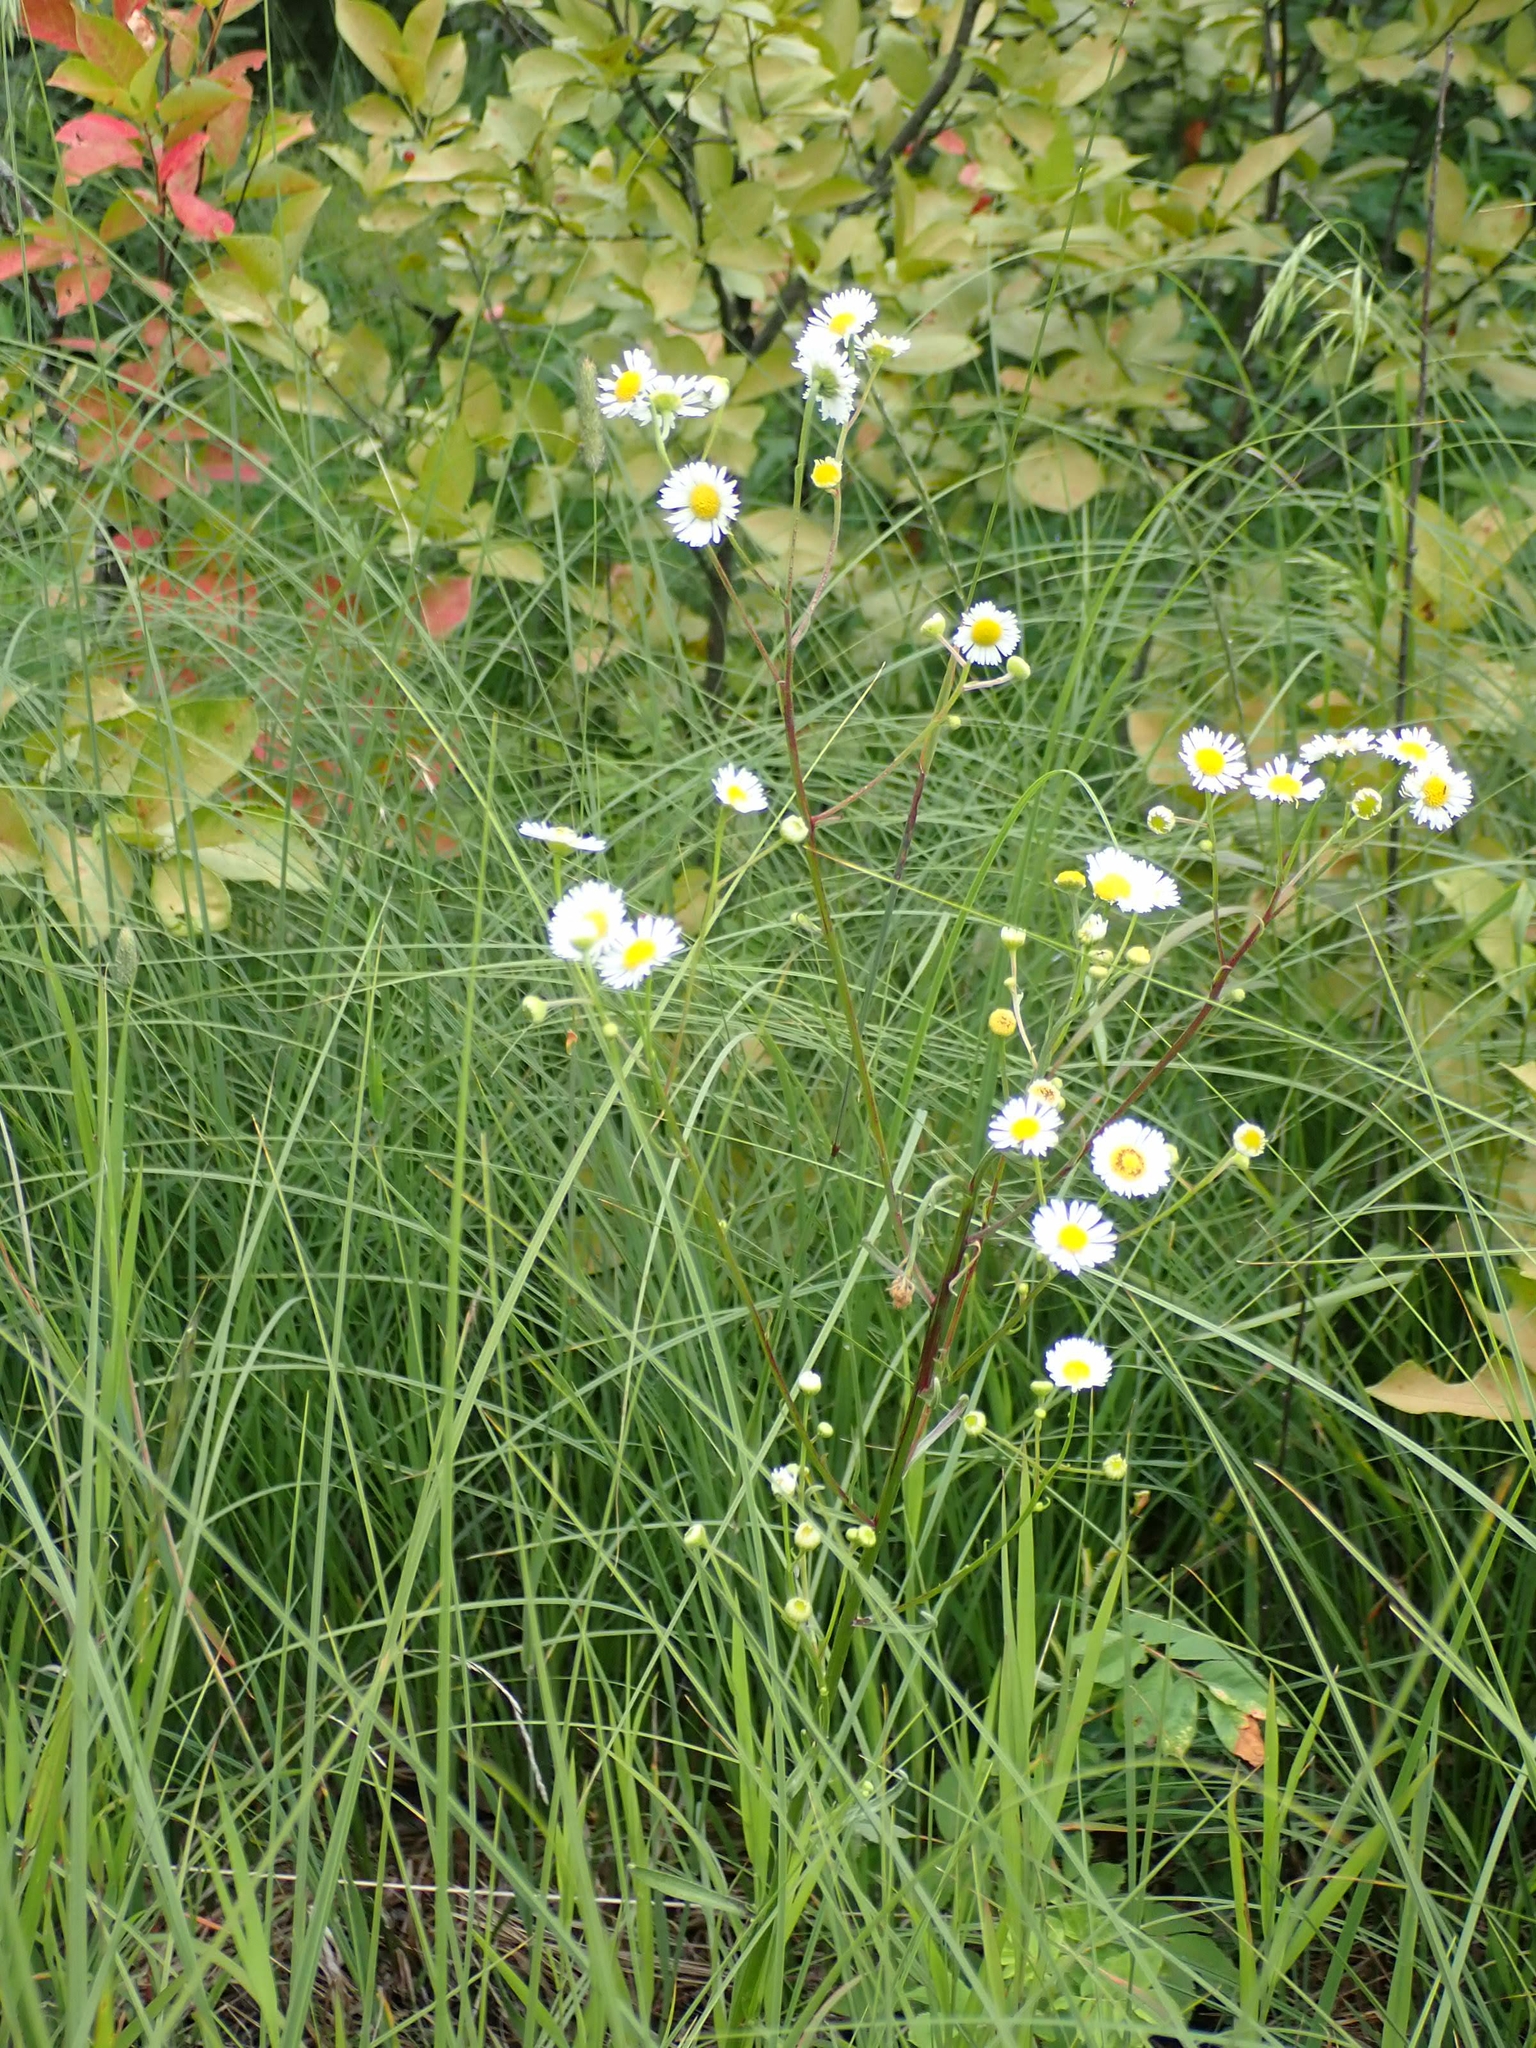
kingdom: Plantae
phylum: Tracheophyta
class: Magnoliopsida
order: Asterales
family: Asteraceae
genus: Erigeron
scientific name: Erigeron strigosus
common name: Common eastern fleabane
